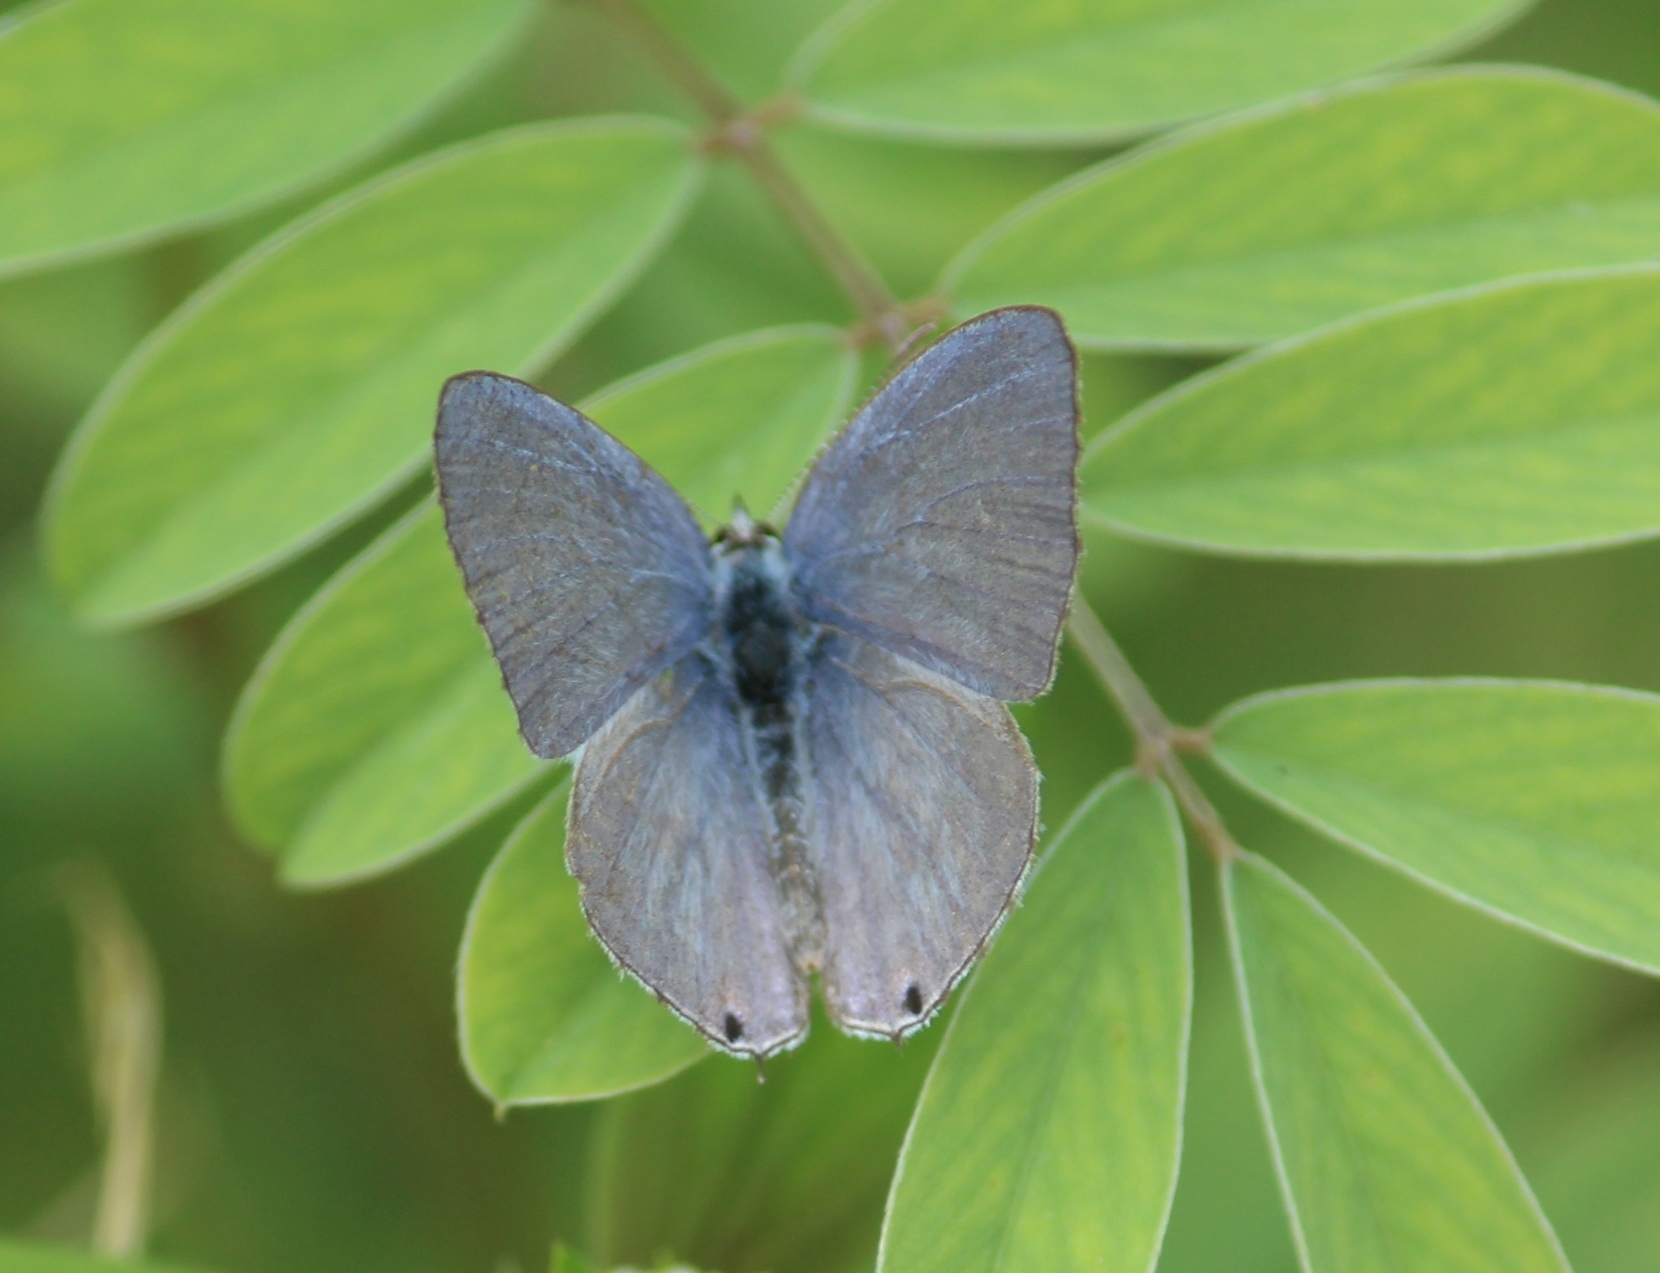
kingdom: Animalia
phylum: Arthropoda
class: Insecta
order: Lepidoptera
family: Lycaenidae
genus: Catochrysops
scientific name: Catochrysops strabo
